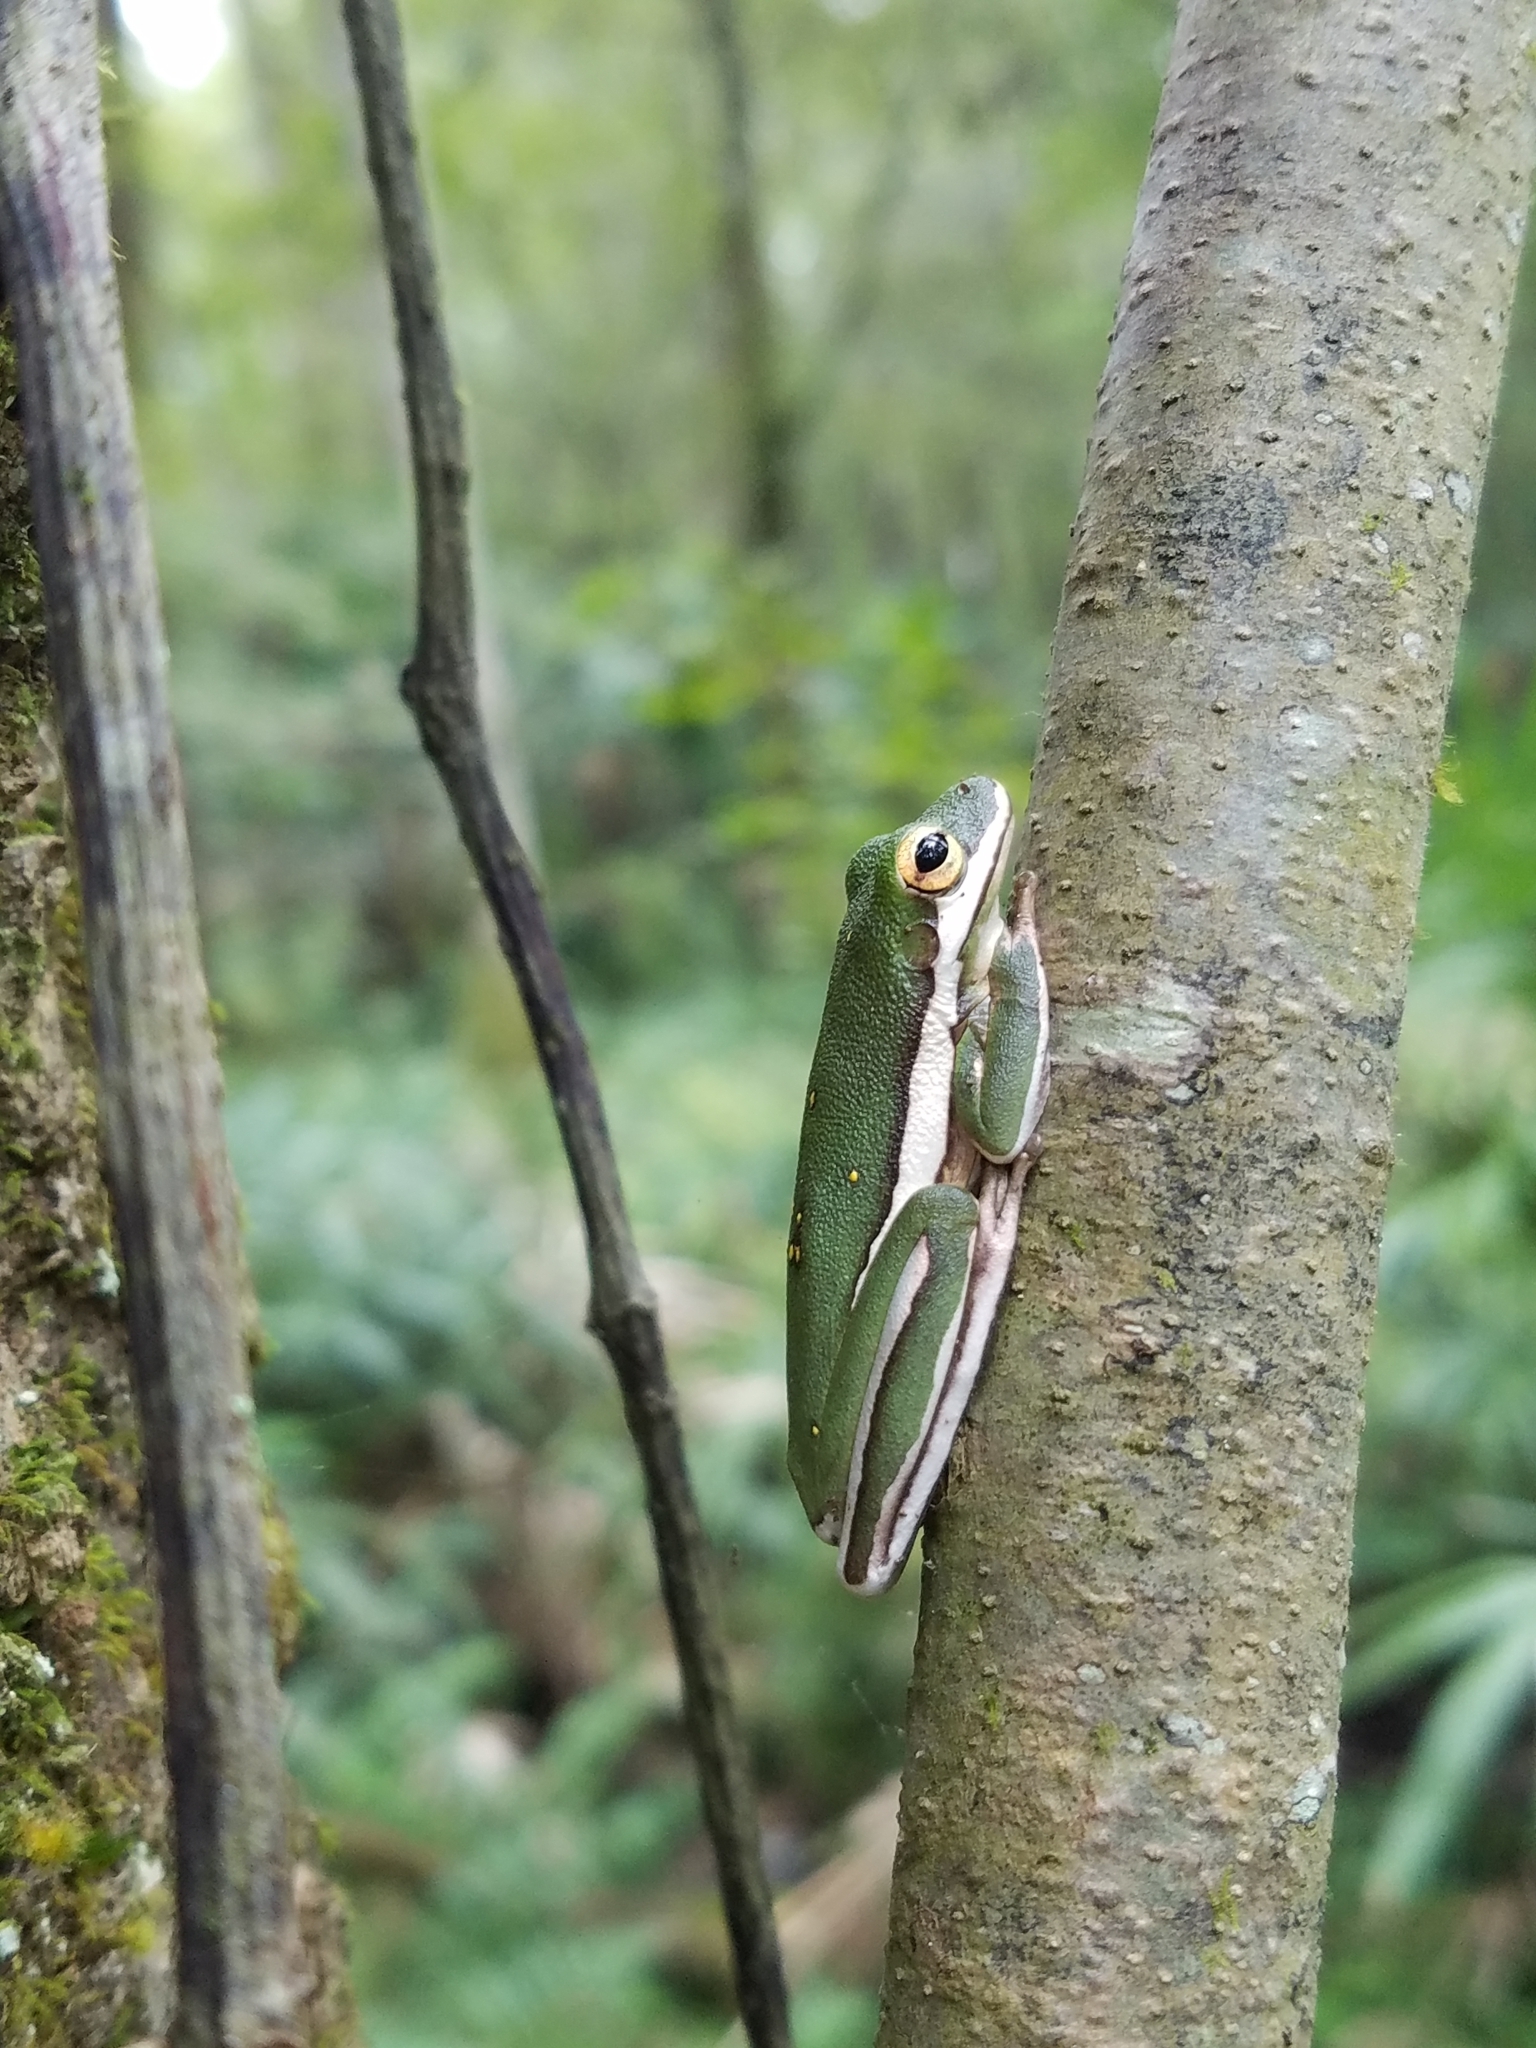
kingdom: Animalia
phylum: Chordata
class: Amphibia
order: Anura
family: Hylidae
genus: Dryophytes
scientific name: Dryophytes cinereus
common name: Green treefrog
